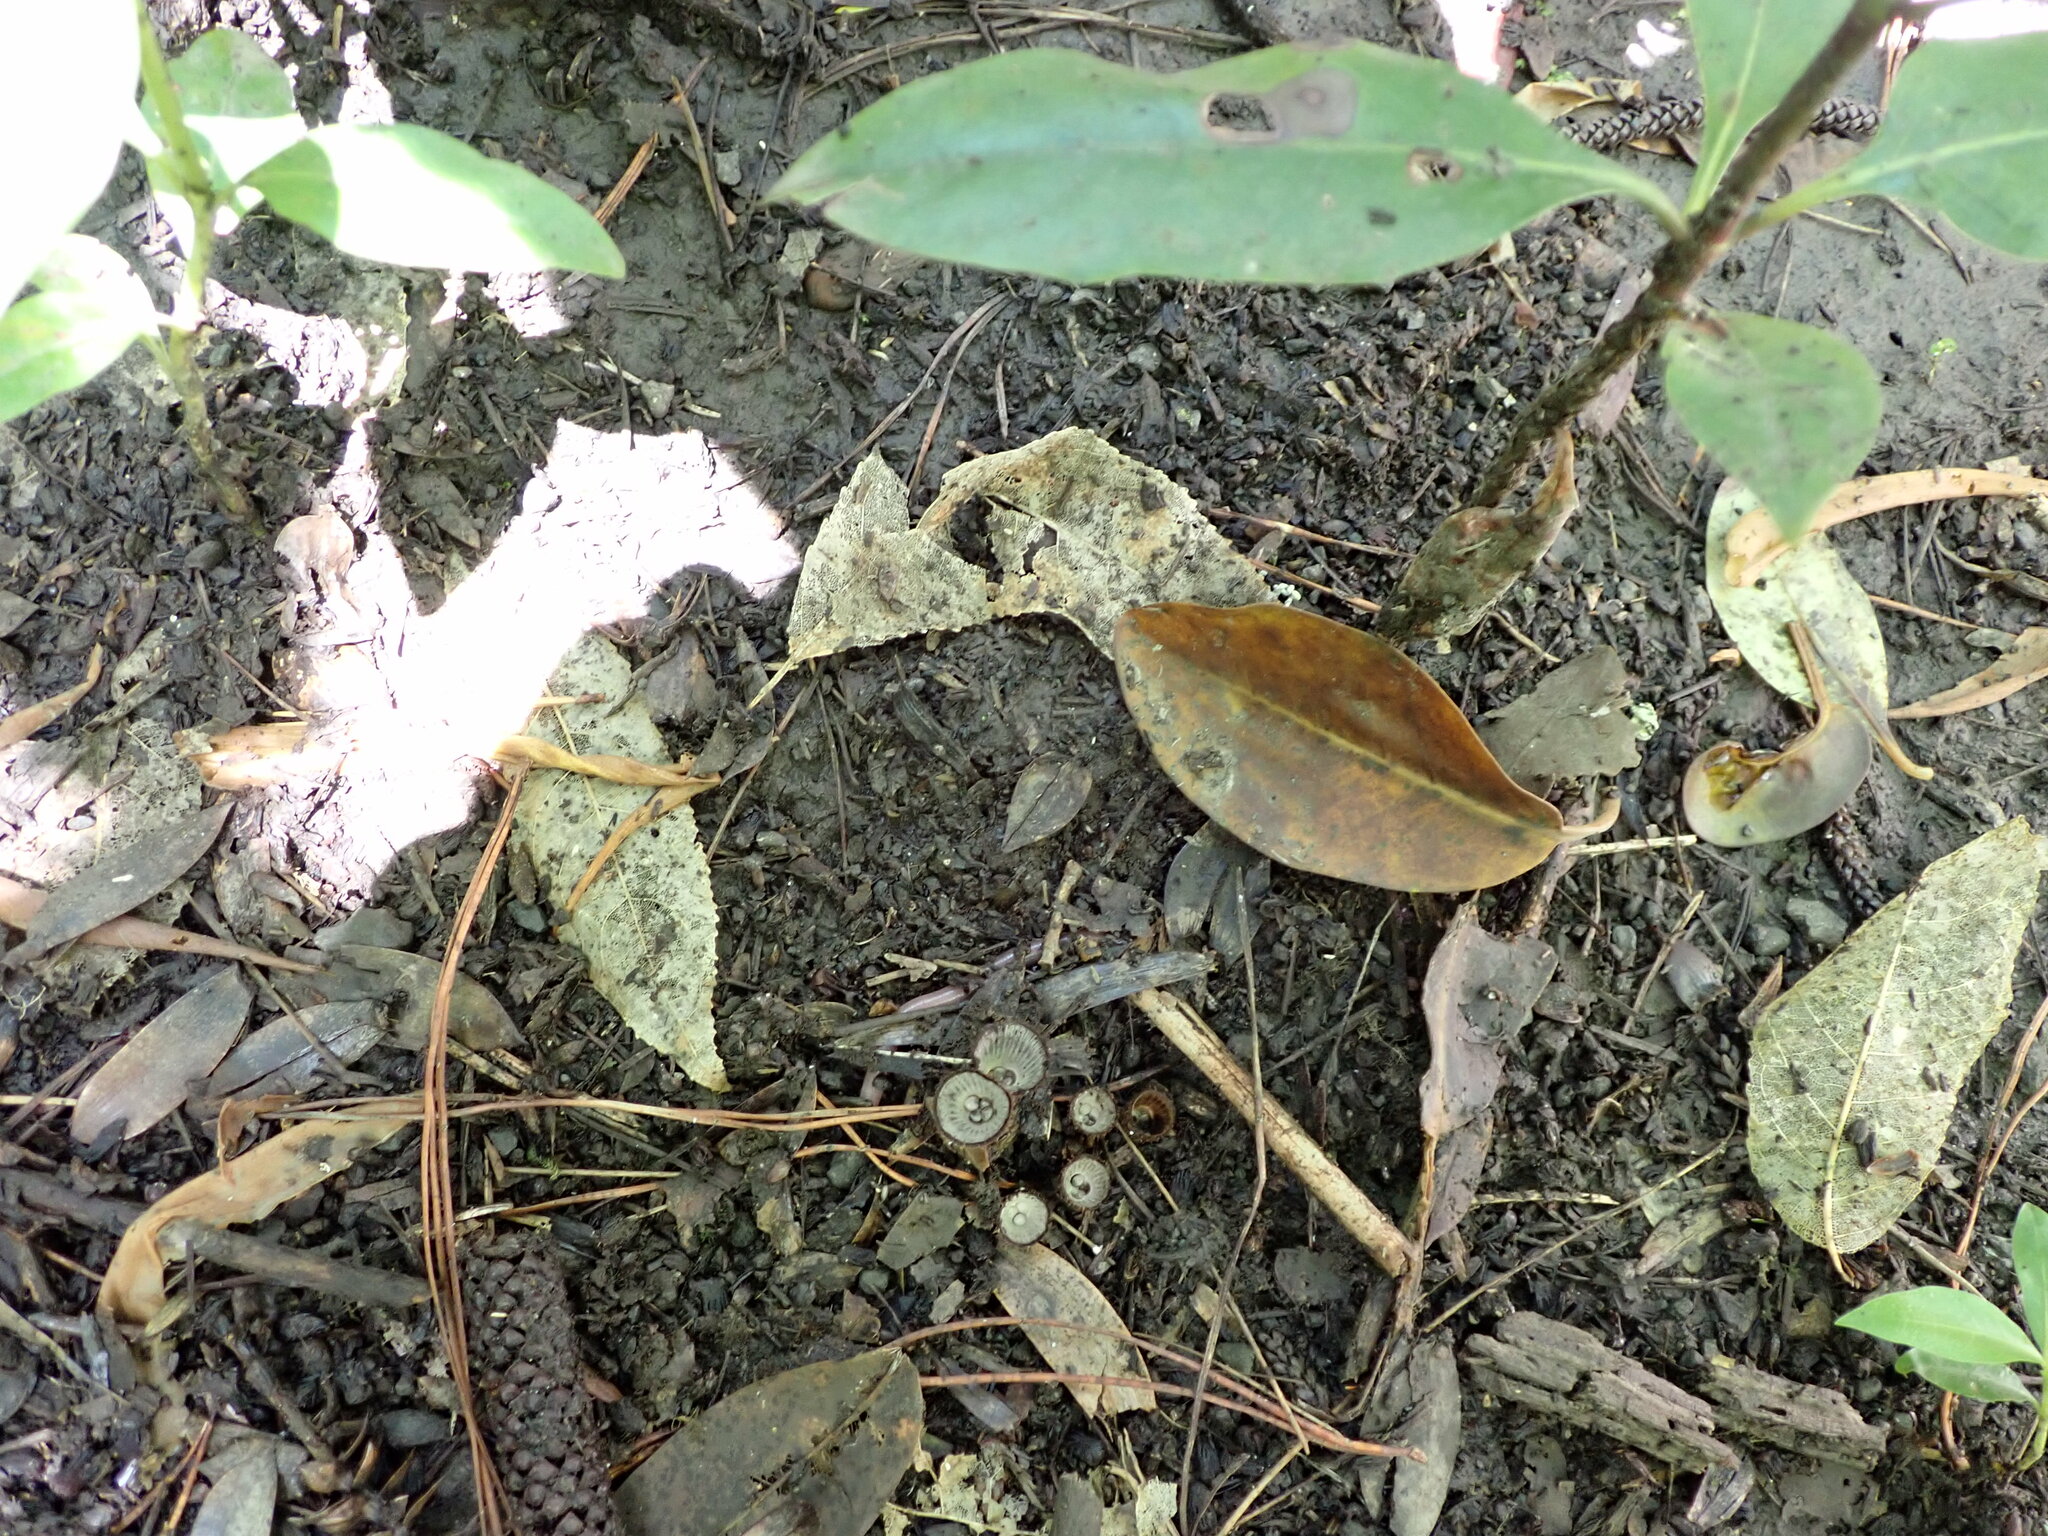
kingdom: Fungi
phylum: Basidiomycota
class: Agaricomycetes
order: Agaricales
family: Agaricaceae
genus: Cyathus
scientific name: Cyathus striatus
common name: Fluted bird's nest
